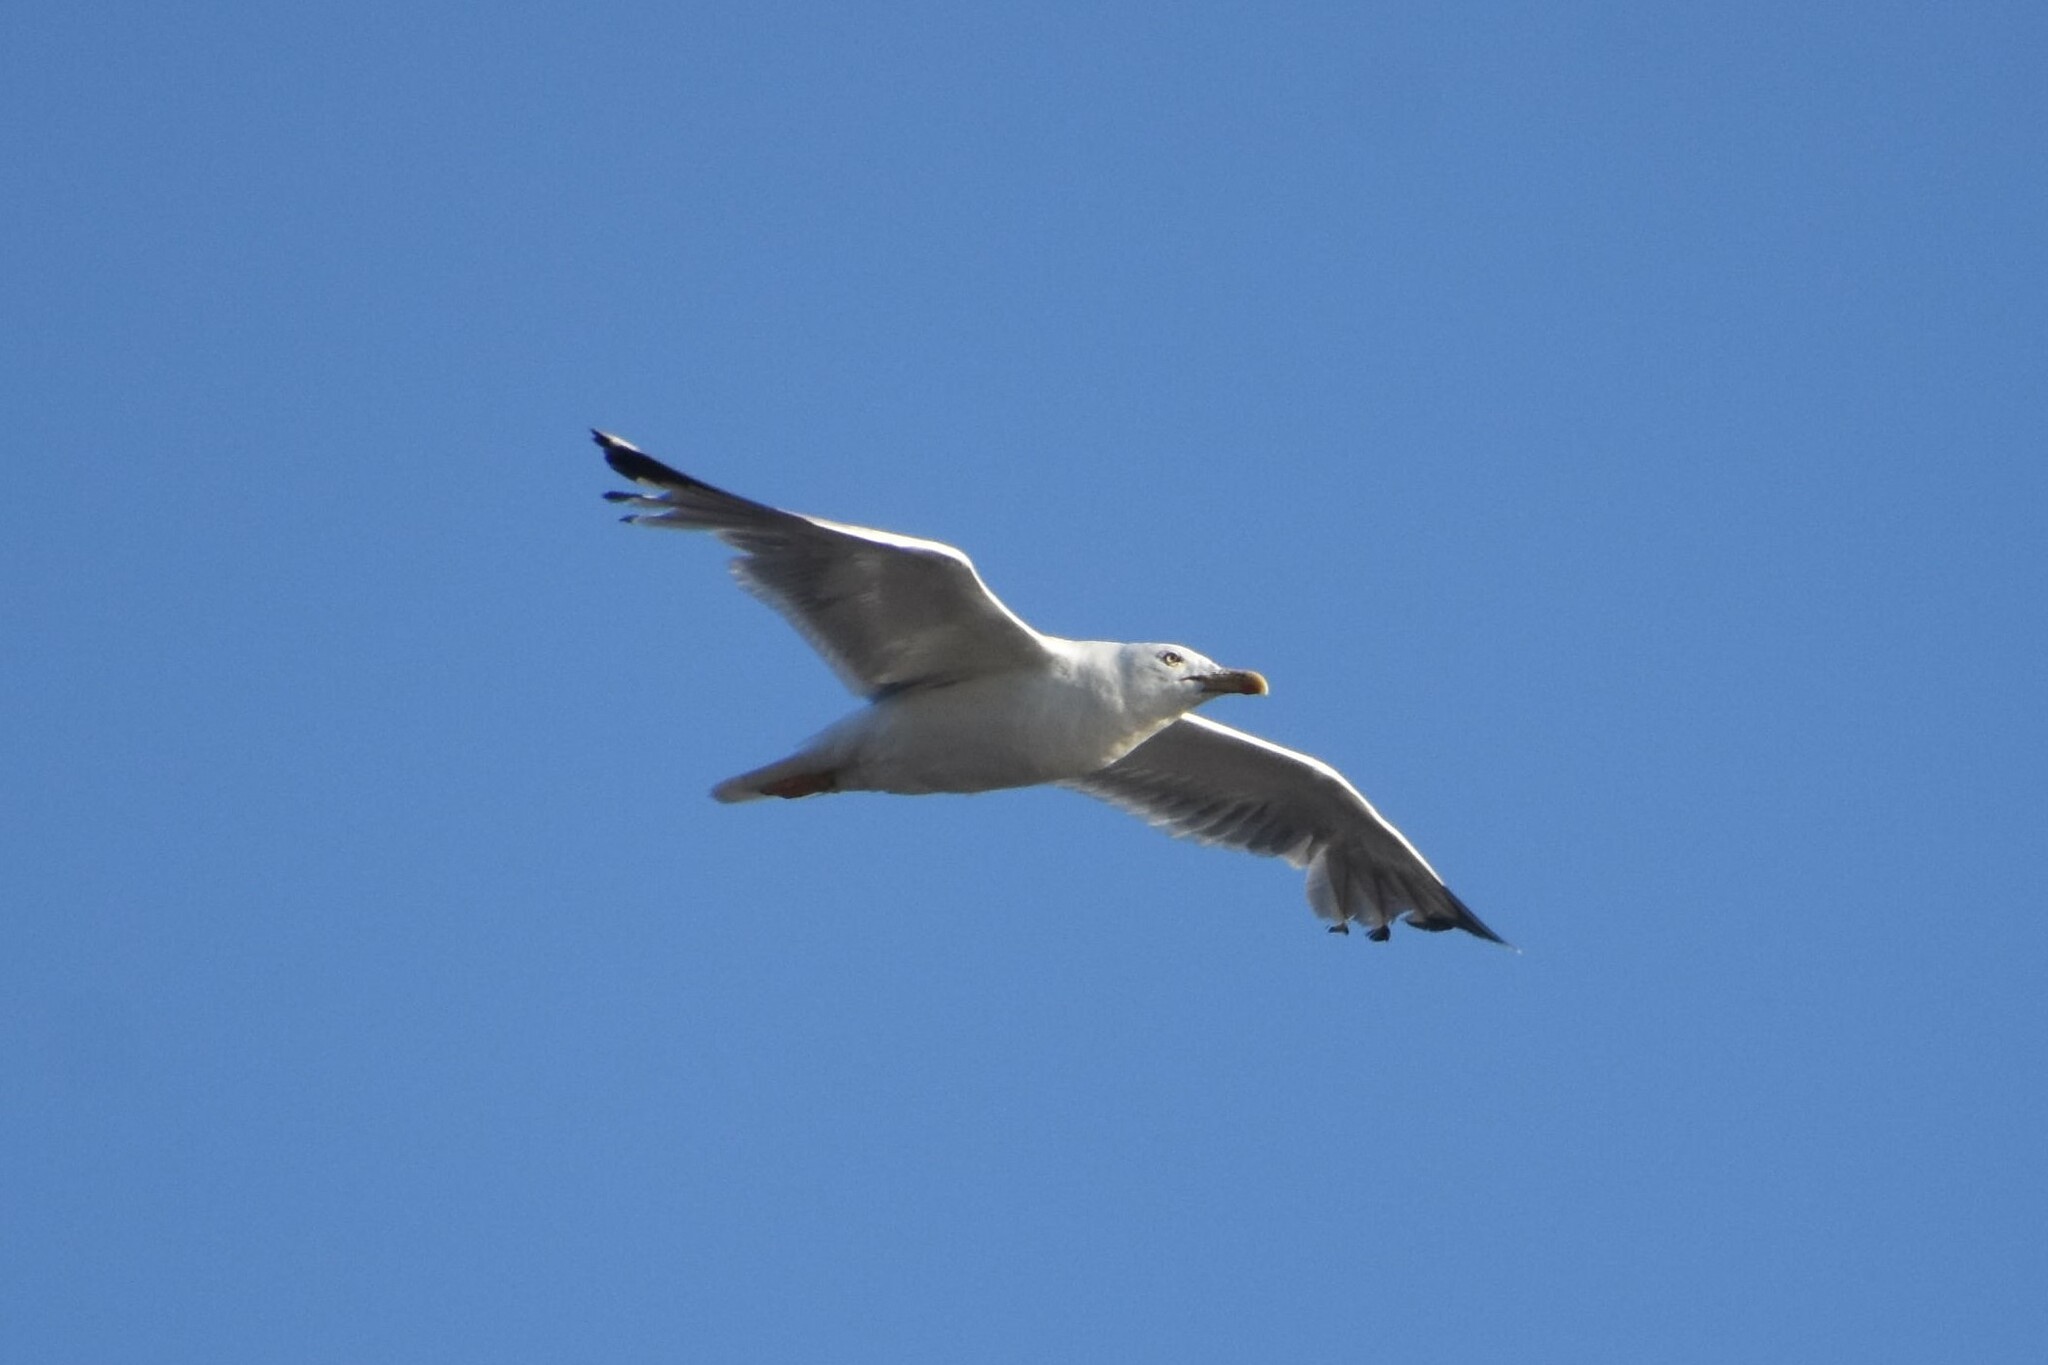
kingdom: Animalia
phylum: Chordata
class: Aves
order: Charadriiformes
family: Laridae
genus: Larus
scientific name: Larus michahellis
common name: Yellow-legged gull
